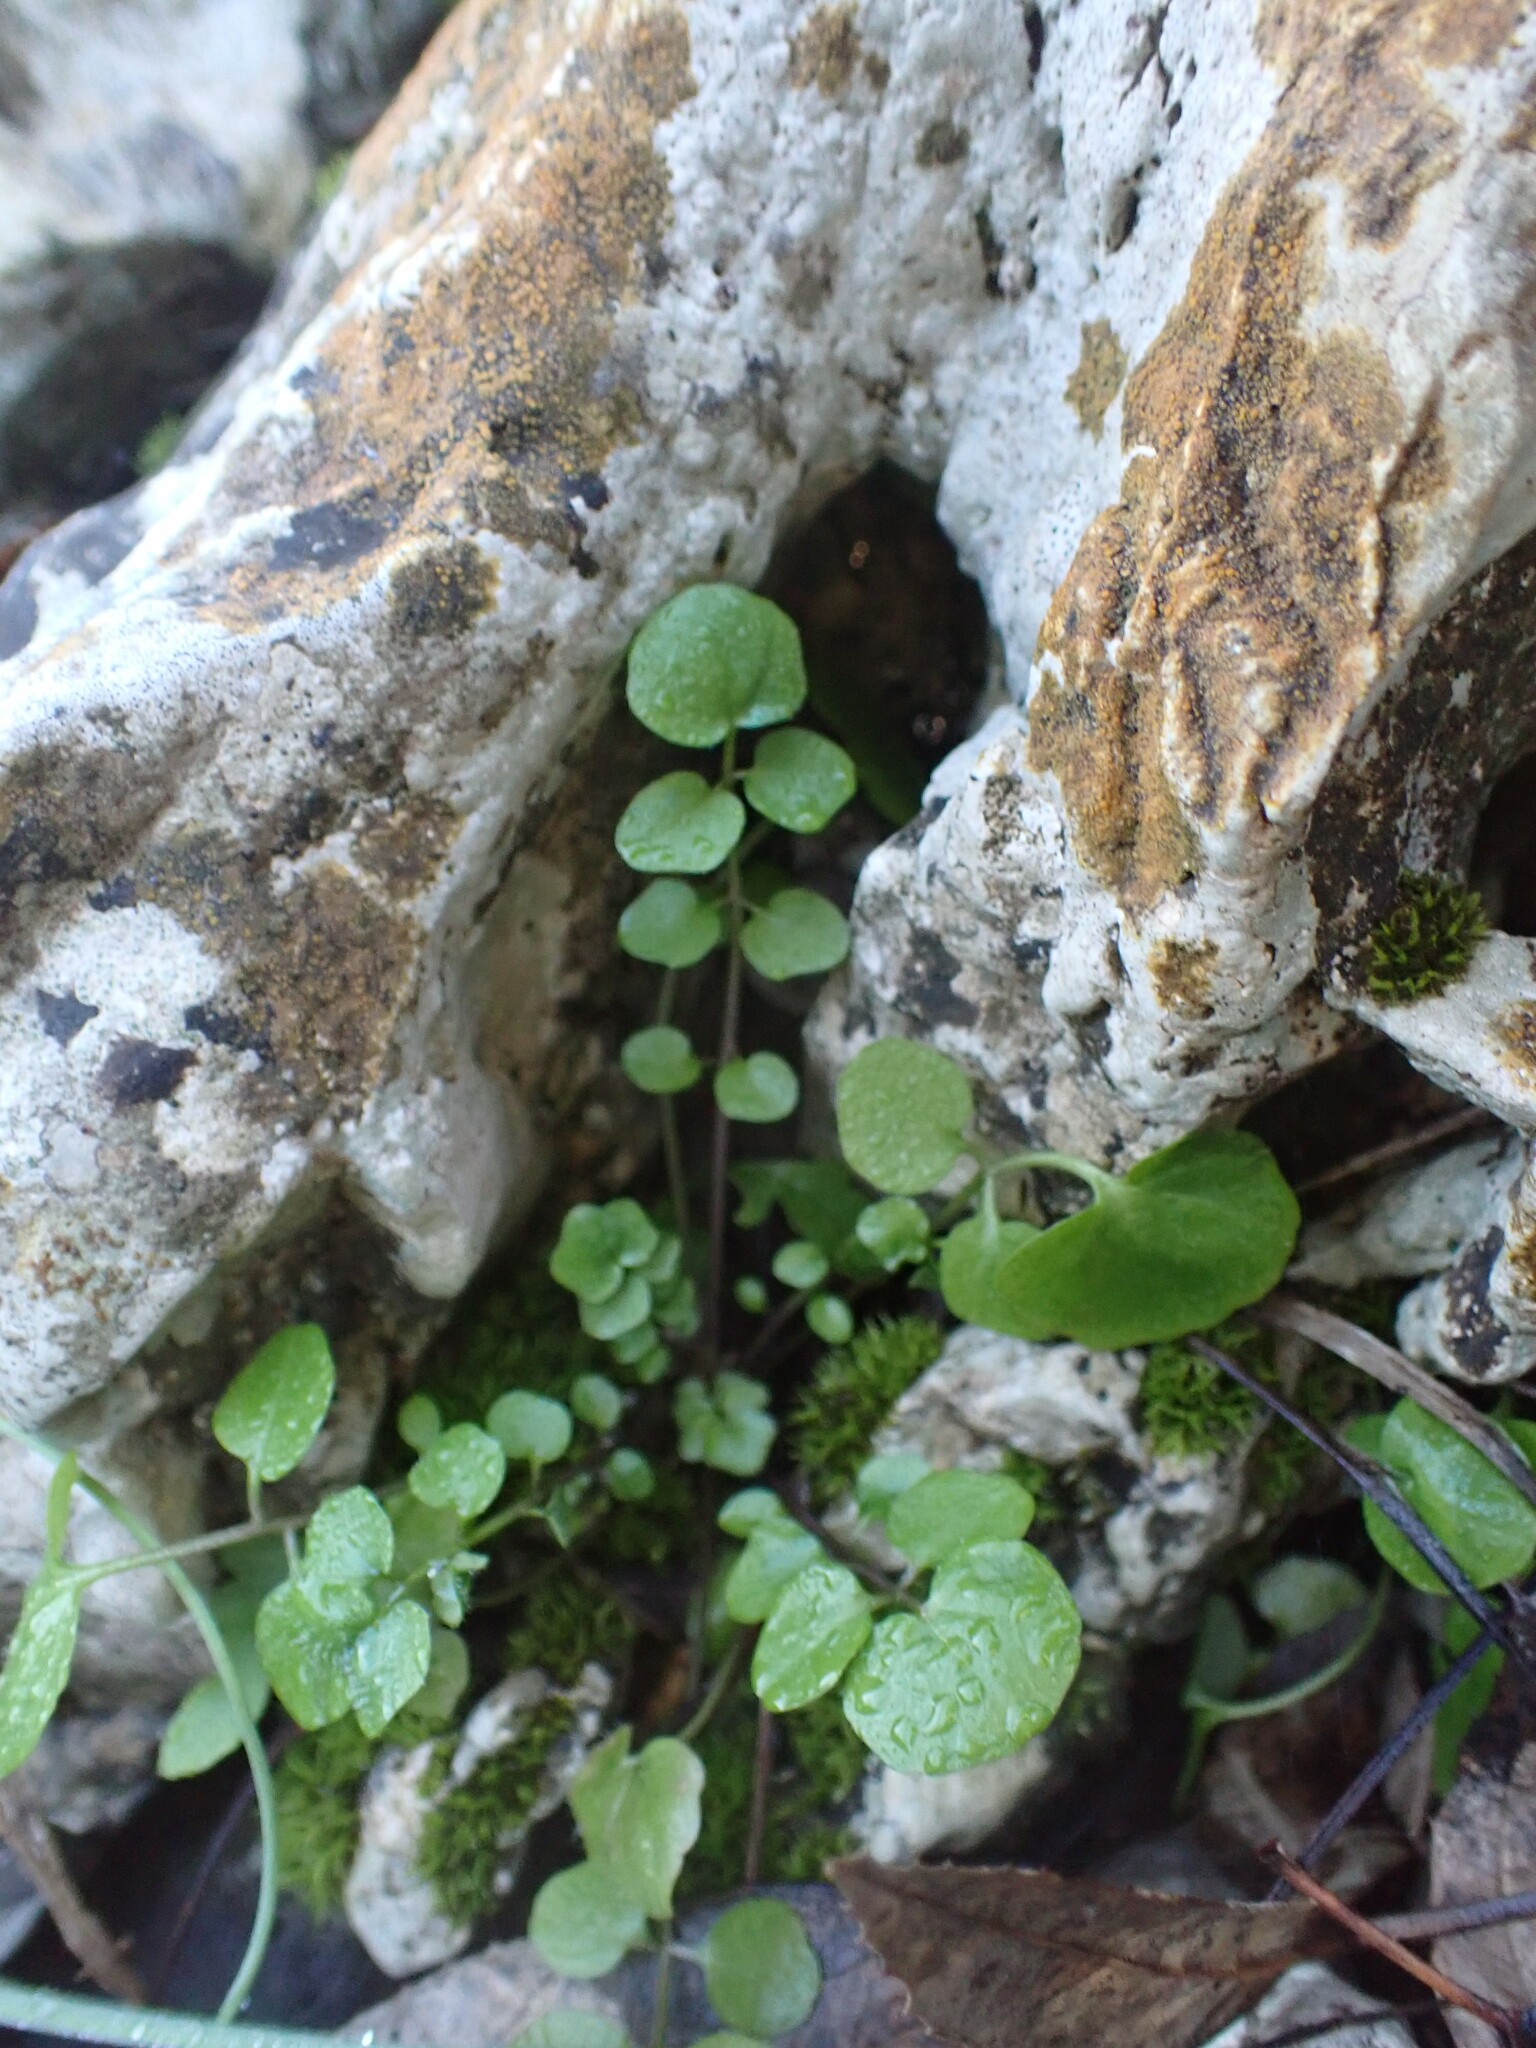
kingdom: Plantae
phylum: Tracheophyta
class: Magnoliopsida
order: Brassicales
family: Brassicaceae
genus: Cardamine
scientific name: Cardamine hirsuta
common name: Hairy bittercress
